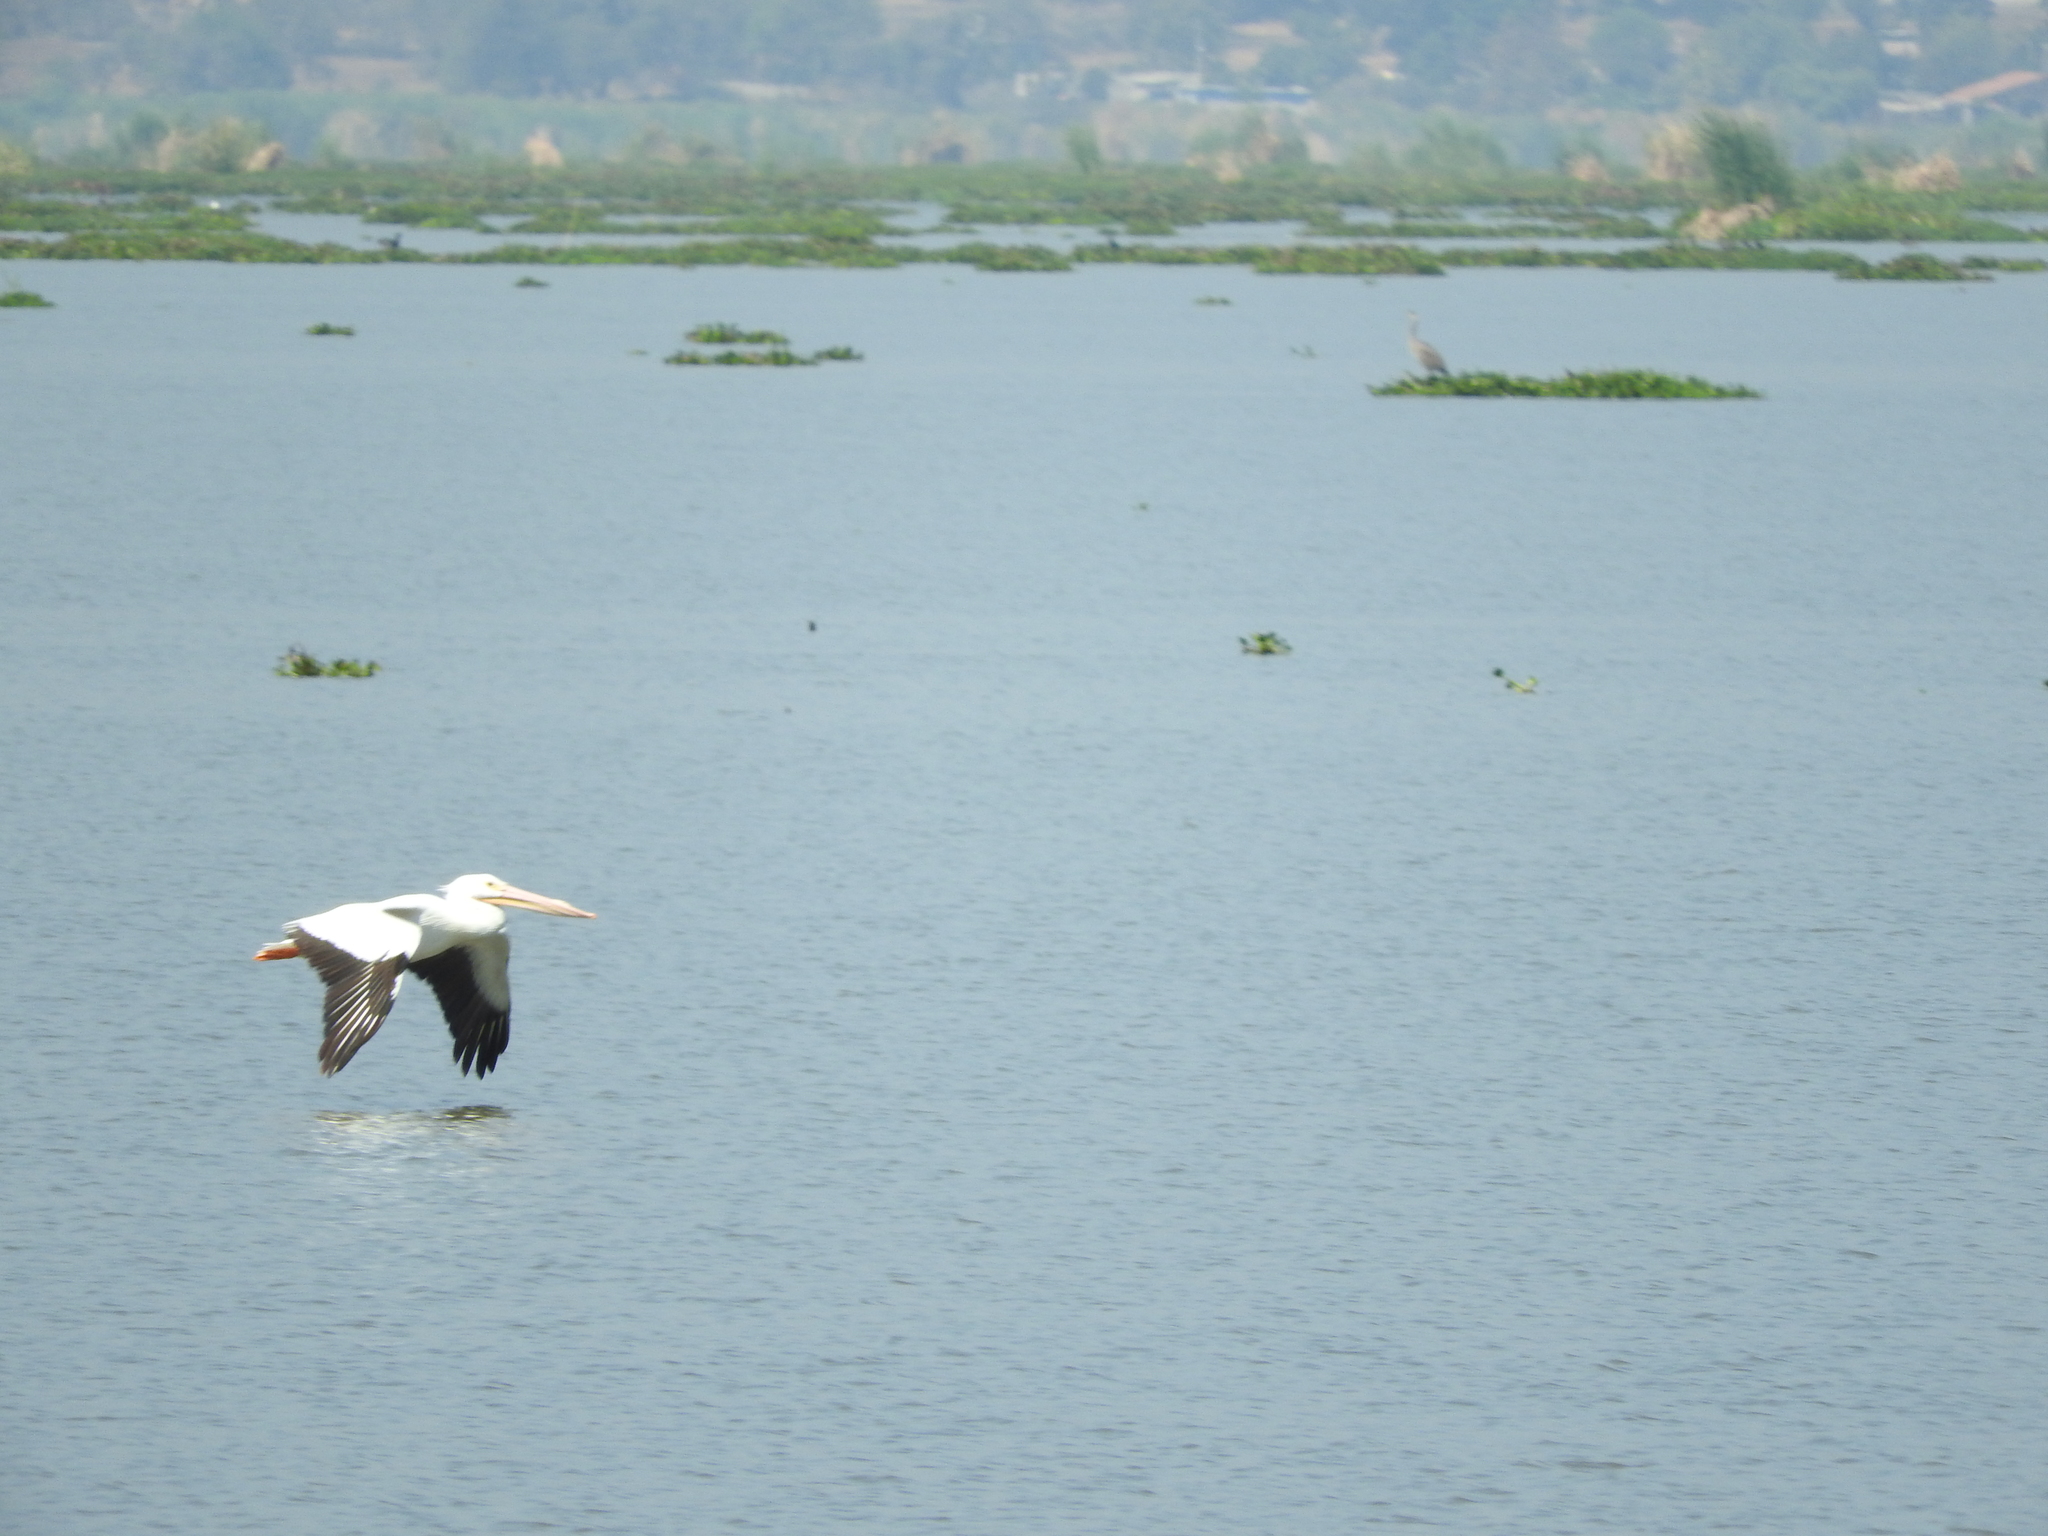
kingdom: Animalia
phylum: Chordata
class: Aves
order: Pelecaniformes
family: Pelecanidae
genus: Pelecanus
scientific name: Pelecanus erythrorhynchos
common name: American white pelican
